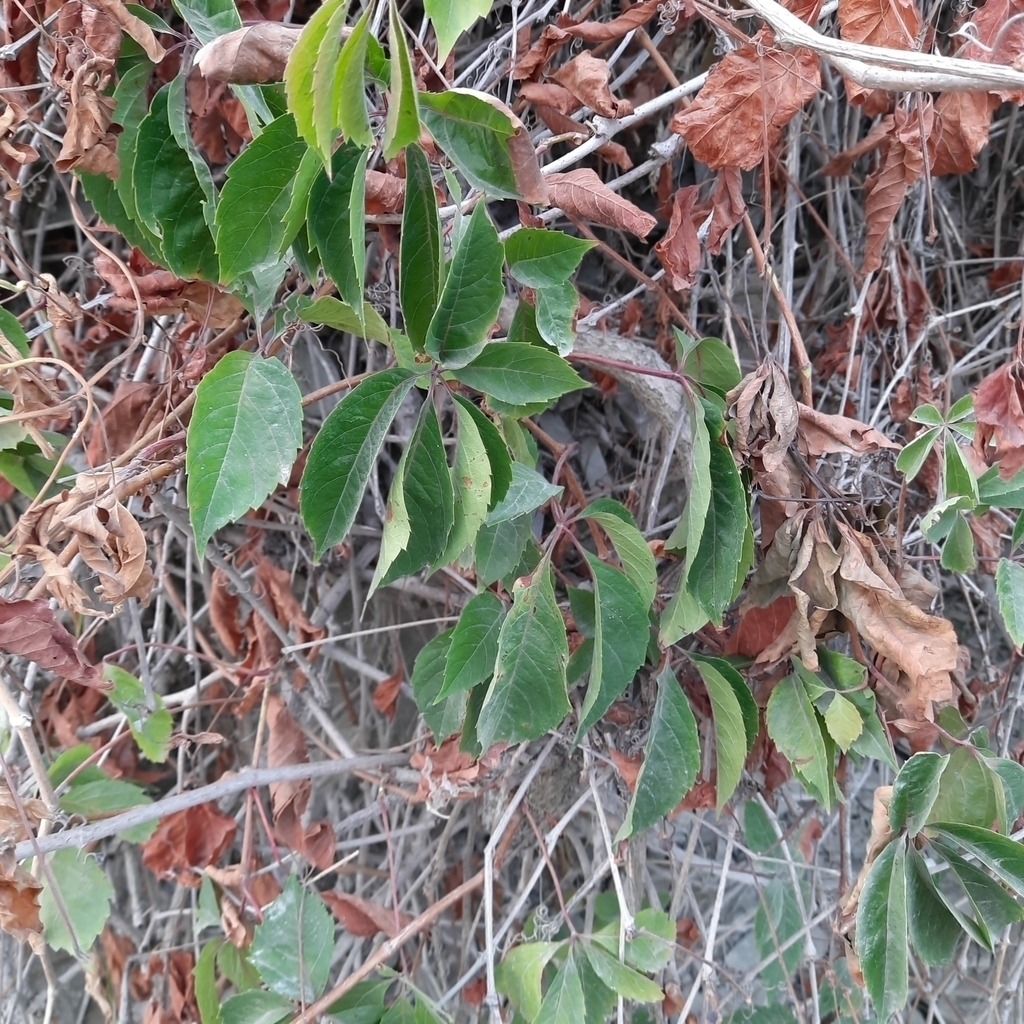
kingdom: Plantae
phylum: Tracheophyta
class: Magnoliopsida
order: Vitales
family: Vitaceae
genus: Parthenocissus
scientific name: Parthenocissus inserta
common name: False virginia-creeper
